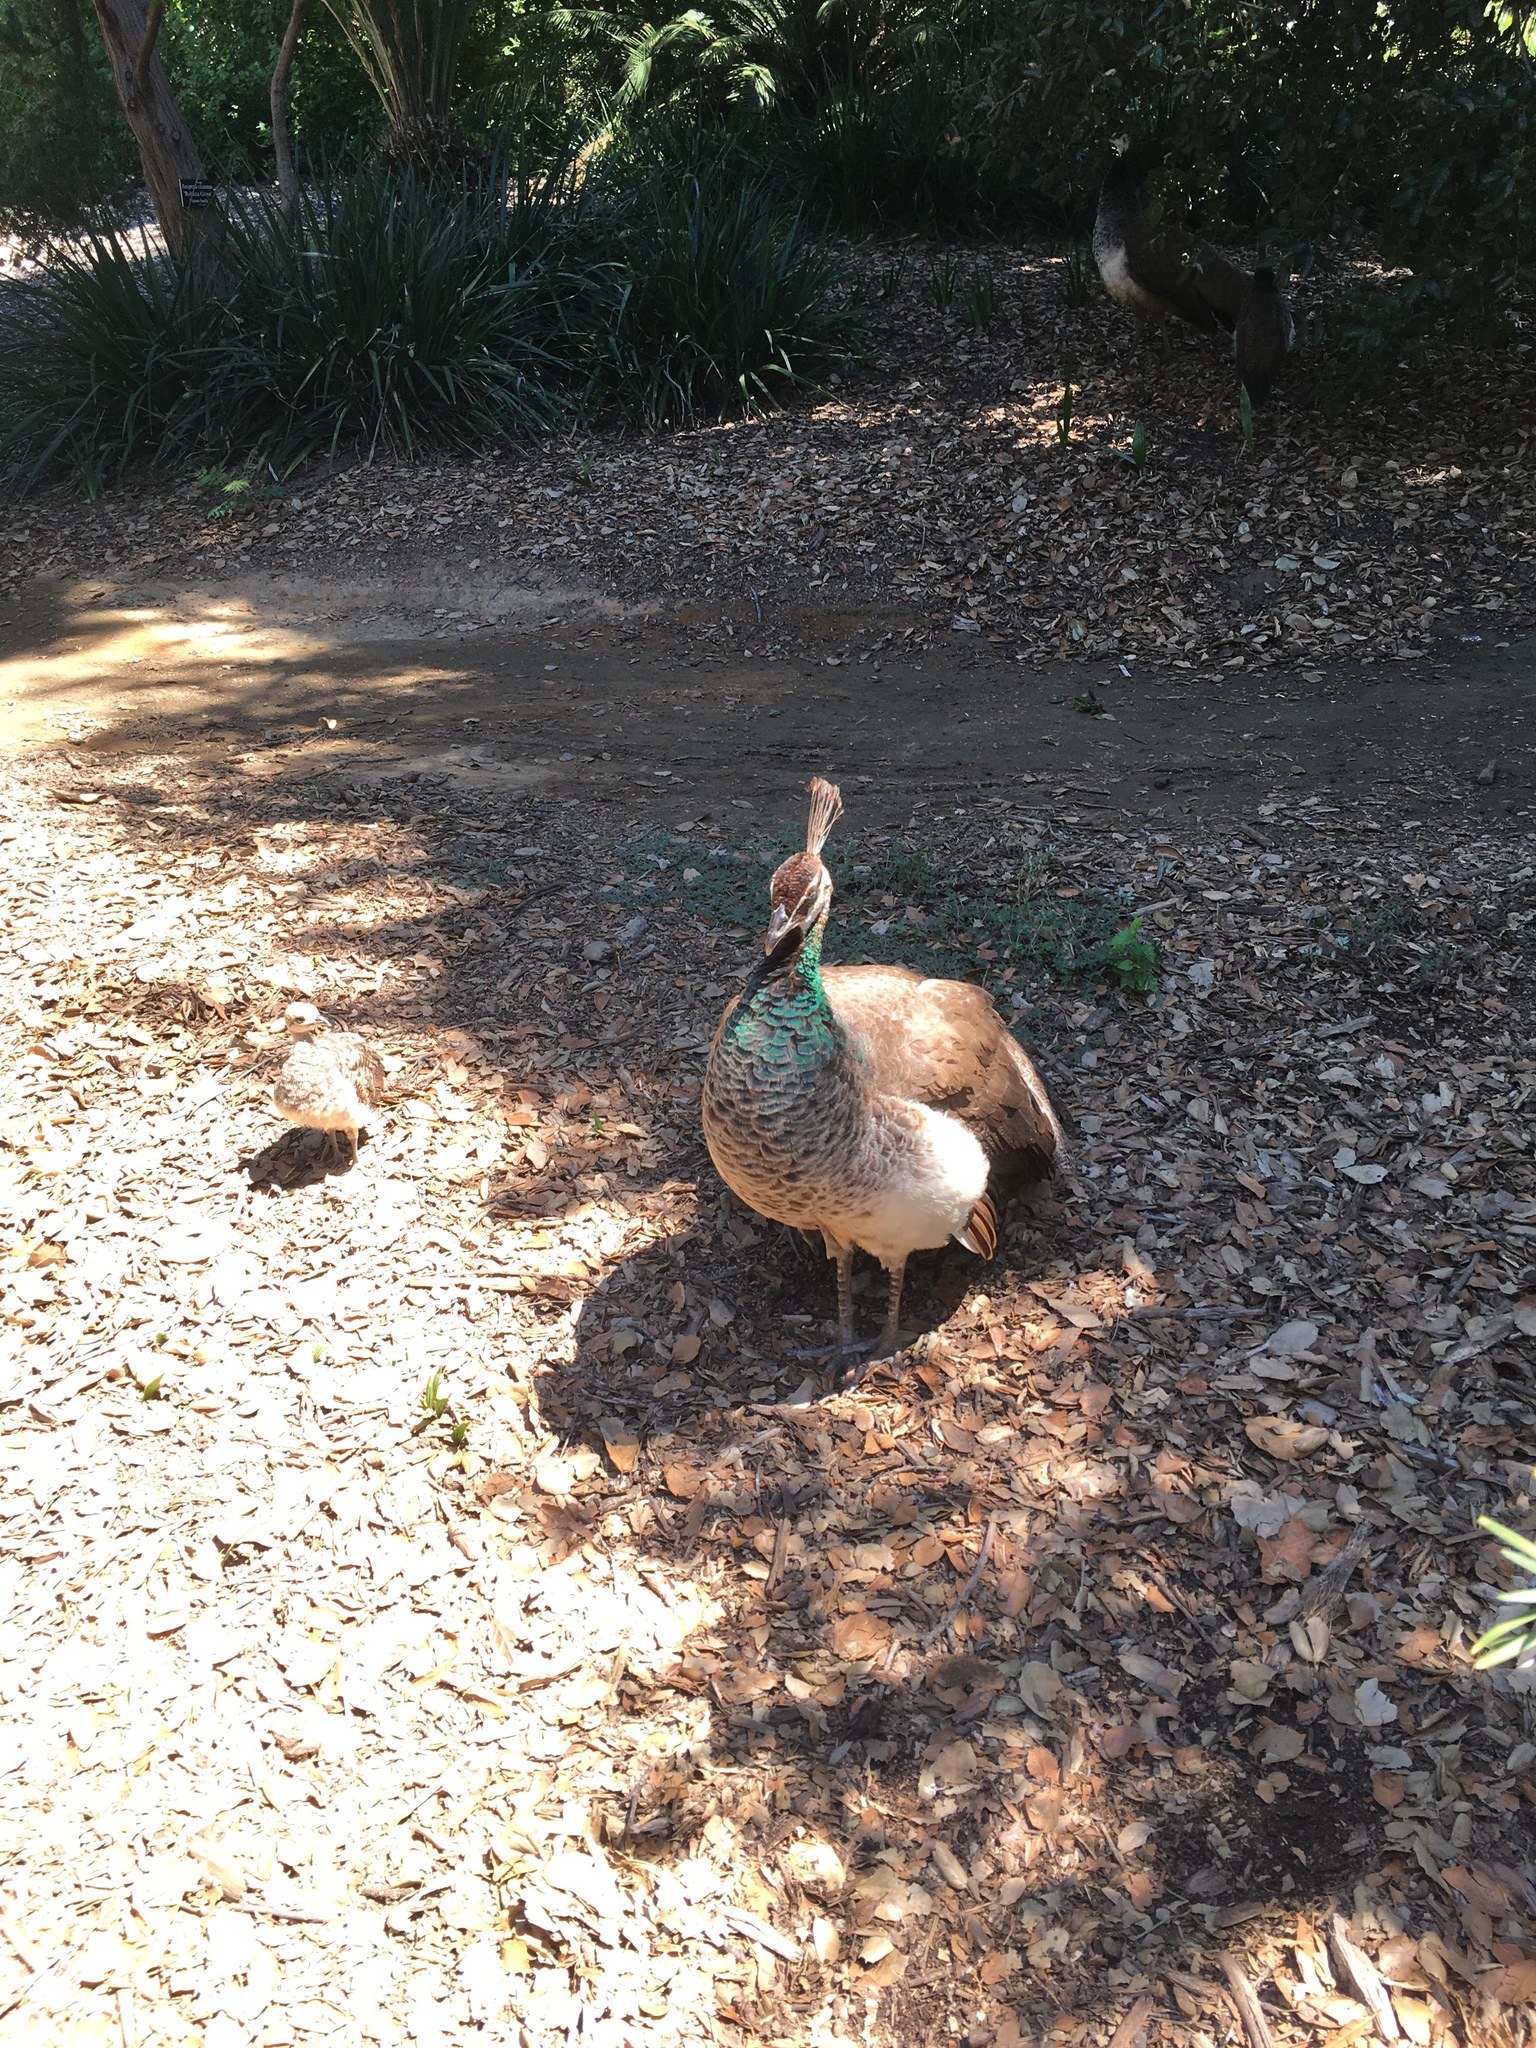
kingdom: Animalia
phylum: Chordata
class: Aves
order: Galliformes
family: Phasianidae
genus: Pavo
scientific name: Pavo cristatus
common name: Indian peafowl
